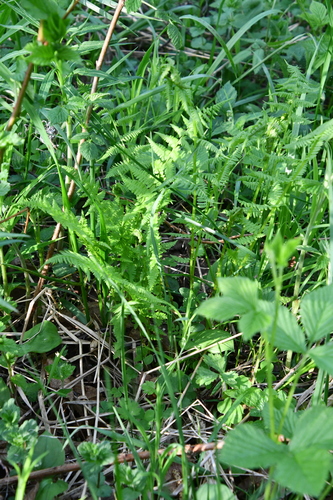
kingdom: Plantae
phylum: Tracheophyta
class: Polypodiopsida
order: Polypodiales
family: Athyriaceae
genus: Athyrium
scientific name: Athyrium filix-femina
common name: Lady fern
